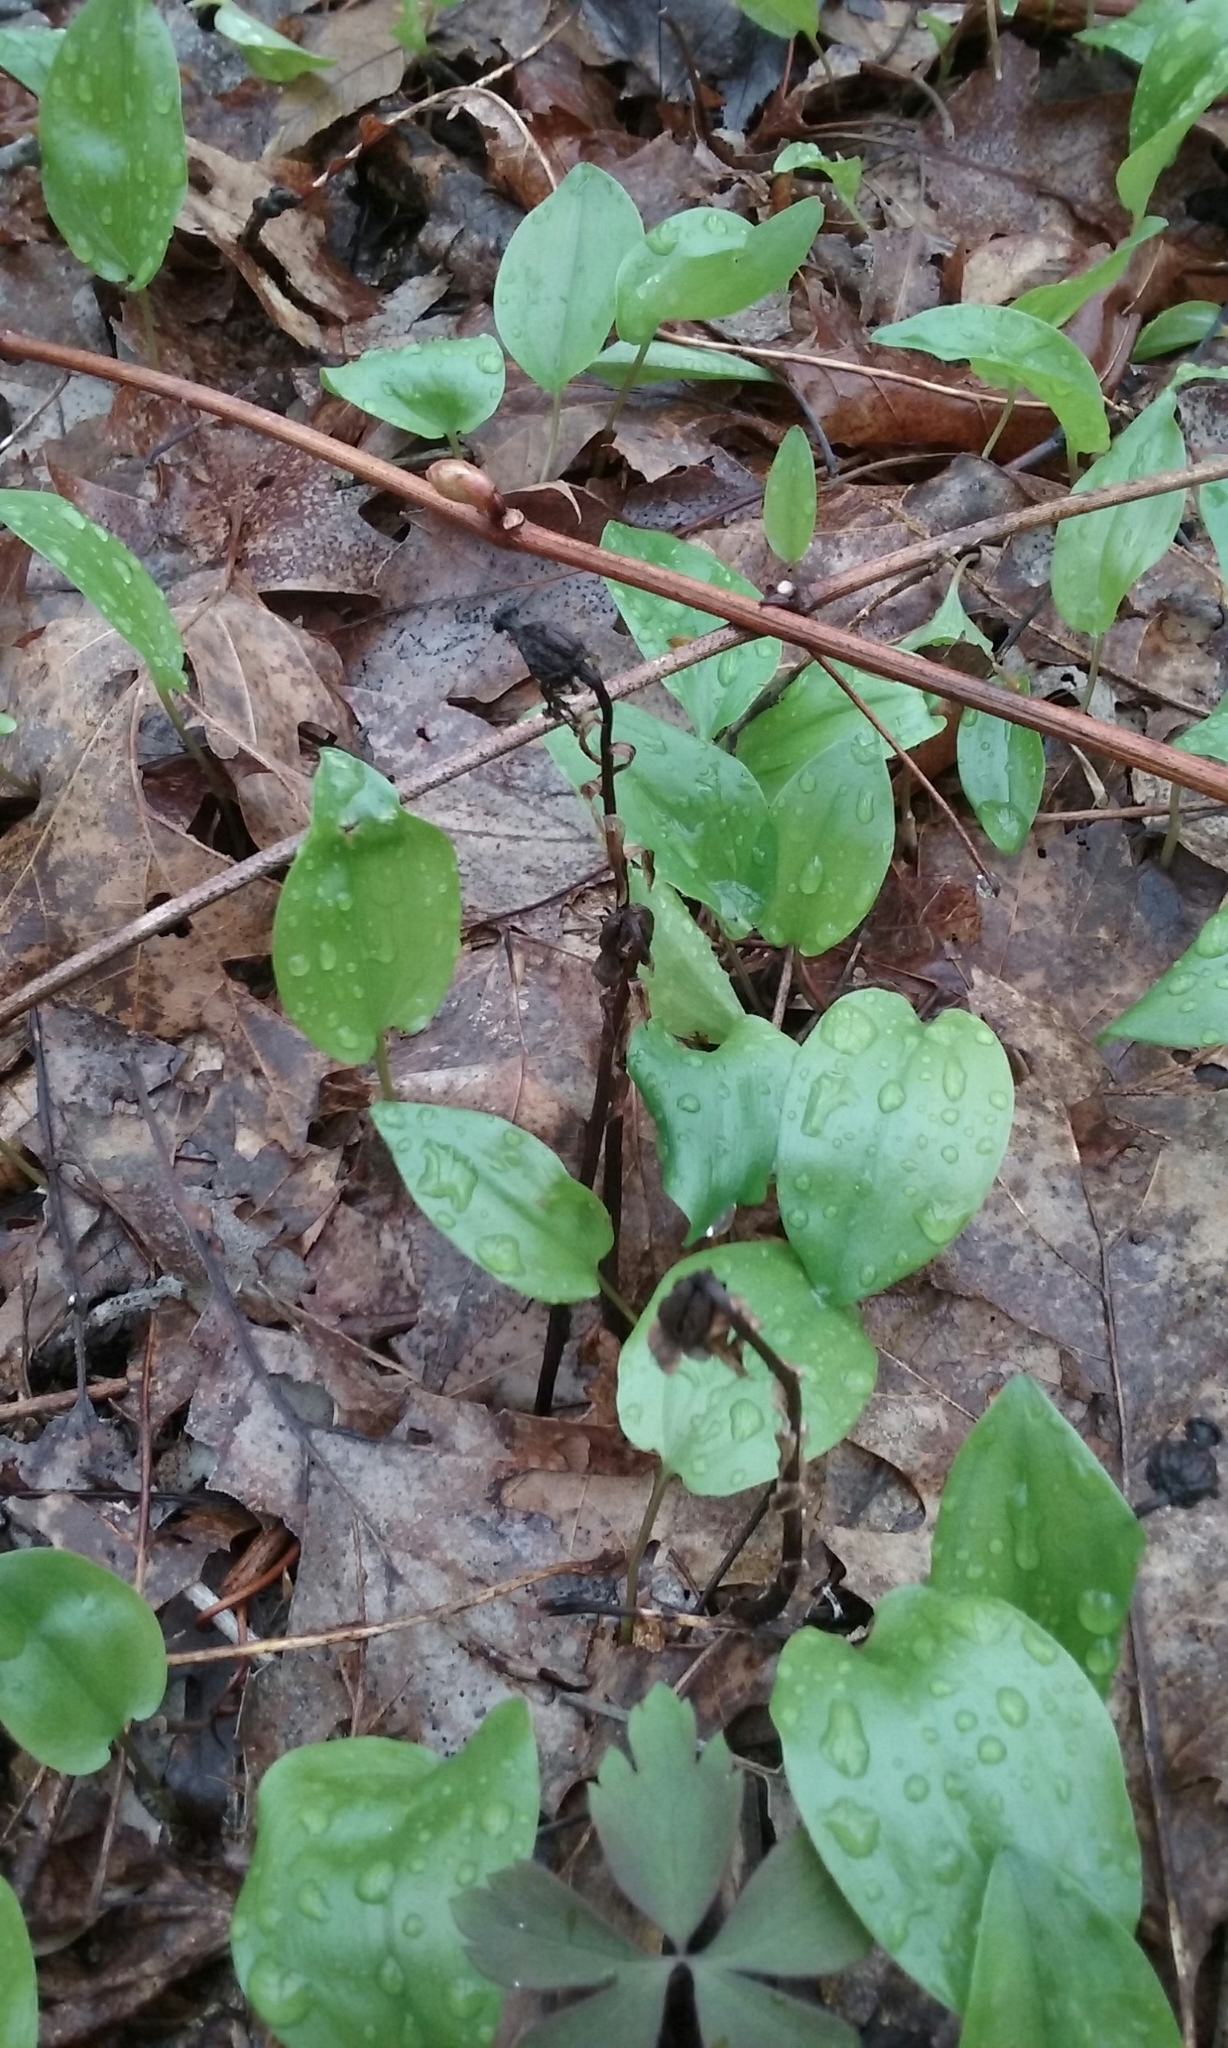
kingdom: Plantae
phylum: Tracheophyta
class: Magnoliopsida
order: Ericales
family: Ericaceae
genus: Monotropa
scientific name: Monotropa uniflora
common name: Convulsion root
